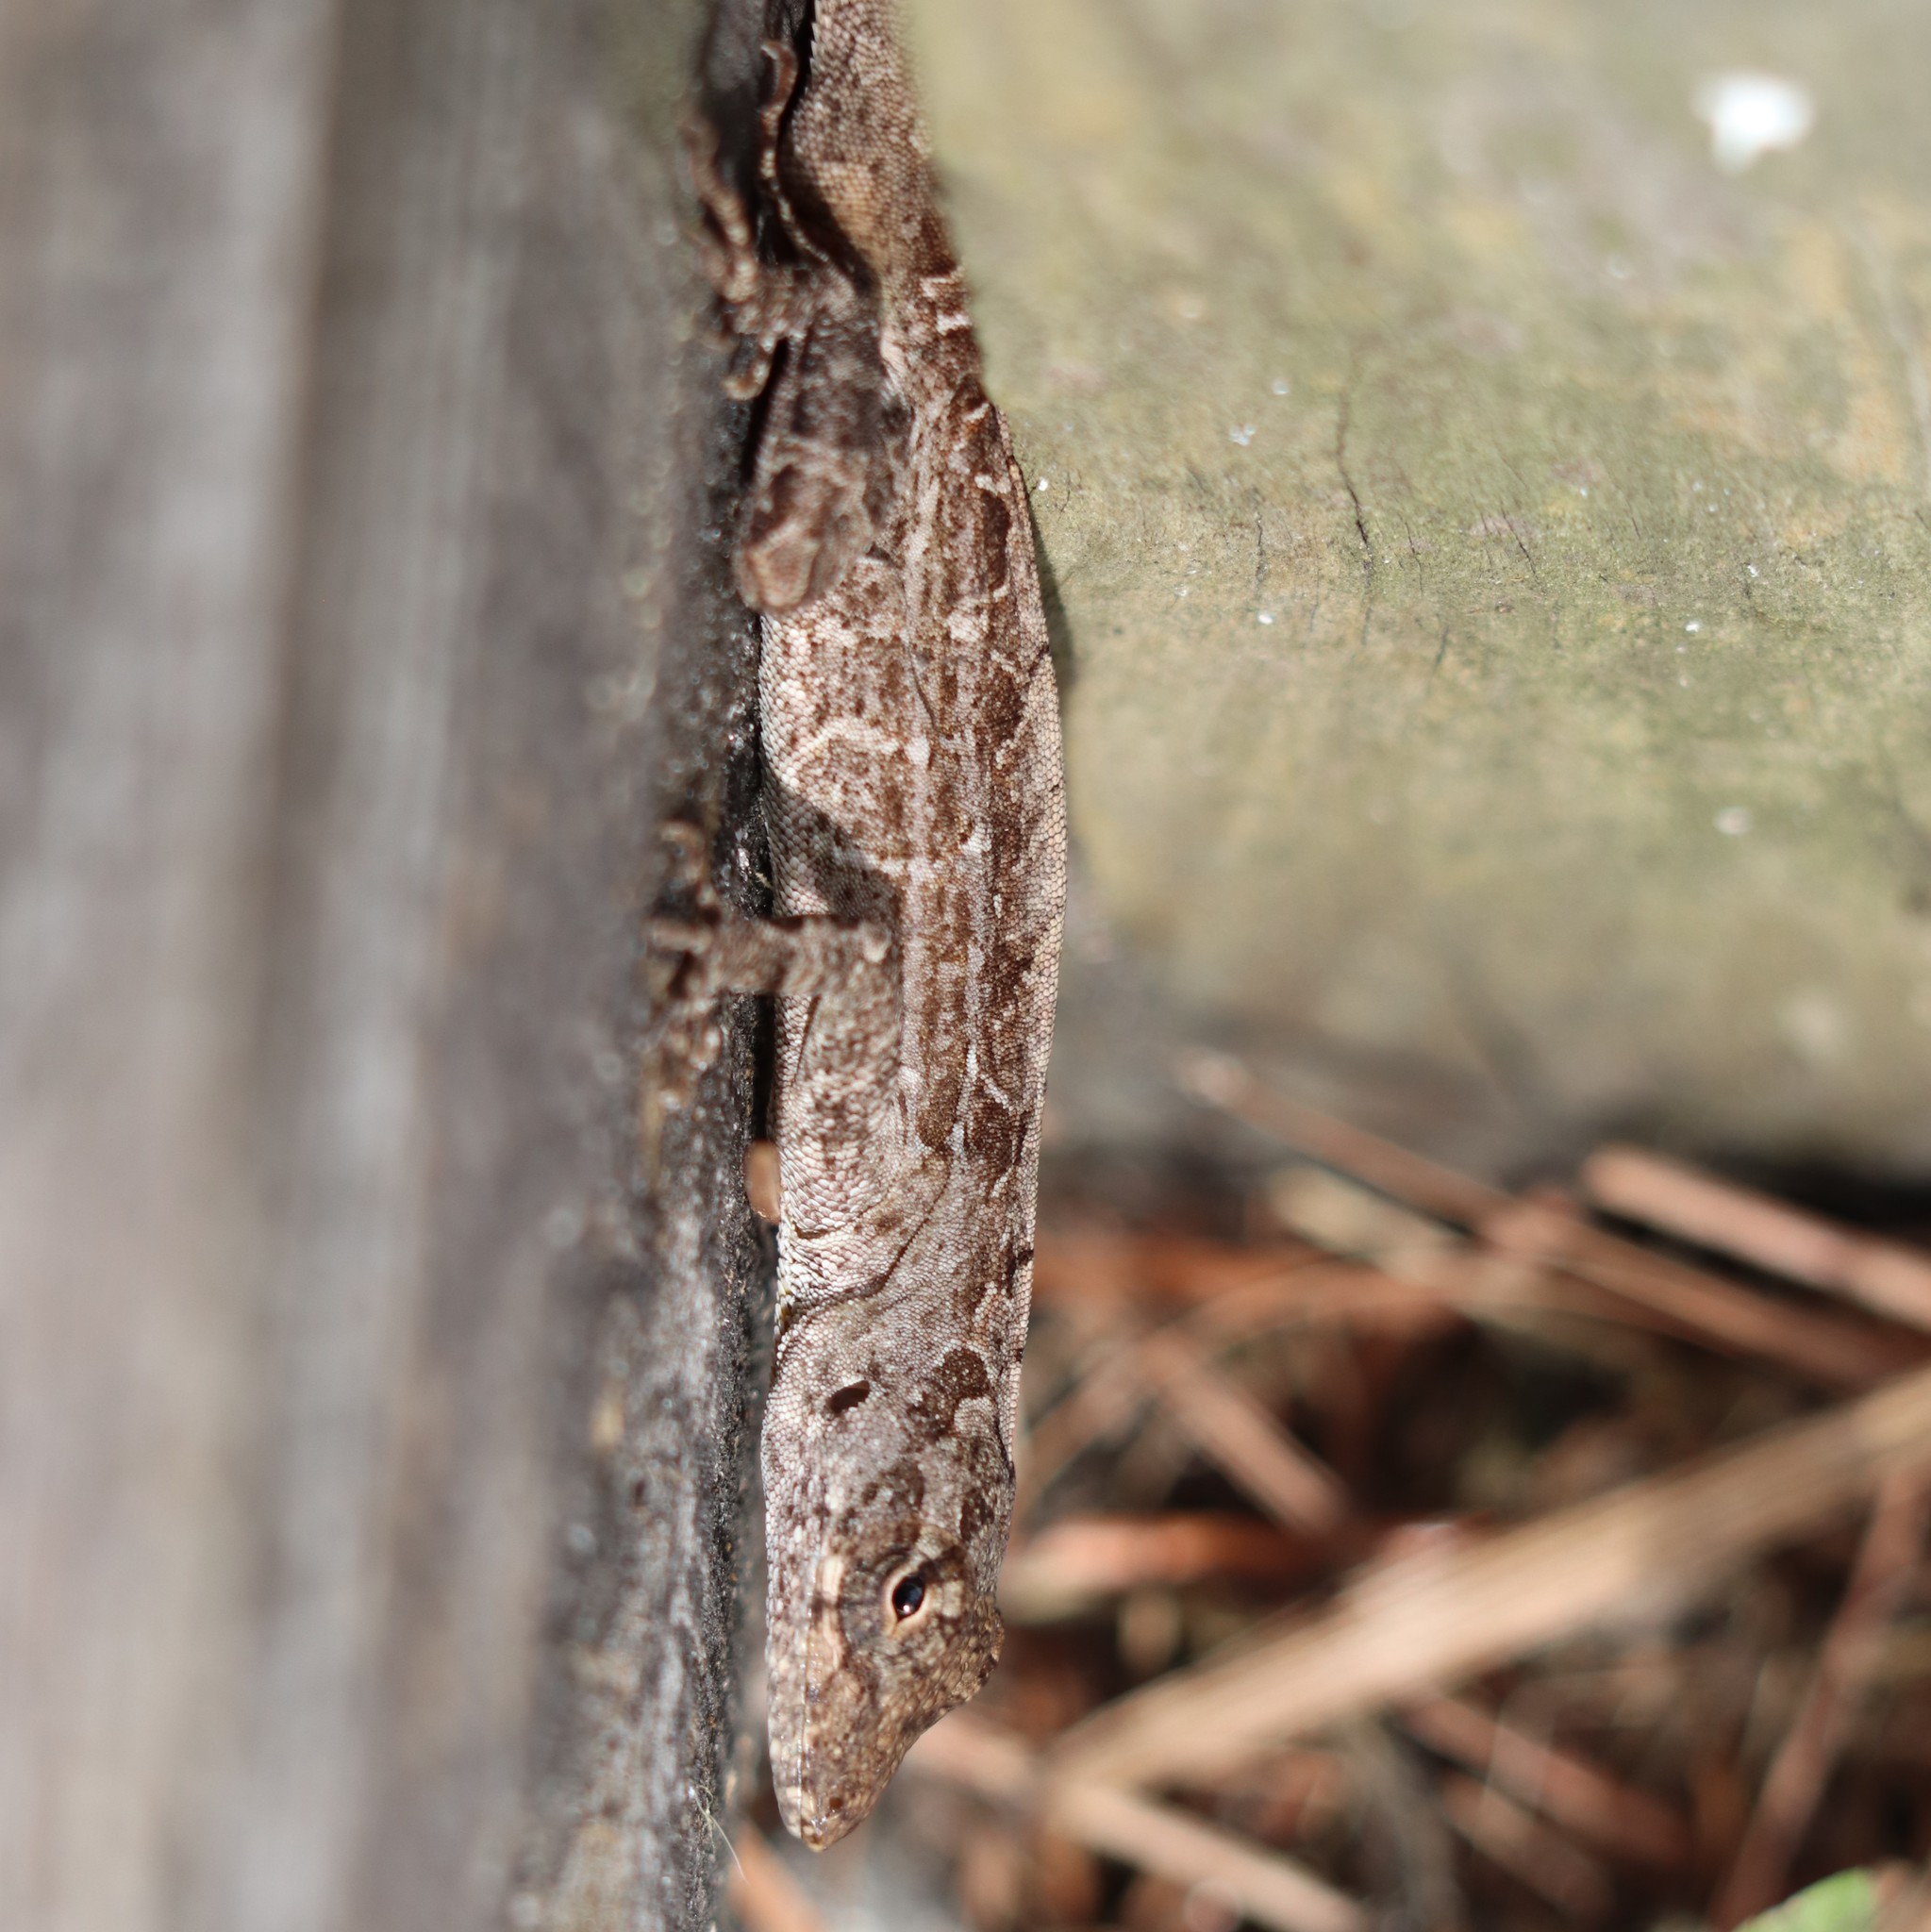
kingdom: Animalia
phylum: Chordata
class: Squamata
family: Dactyloidae
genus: Anolis
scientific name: Anolis sagrei
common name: Brown anole
